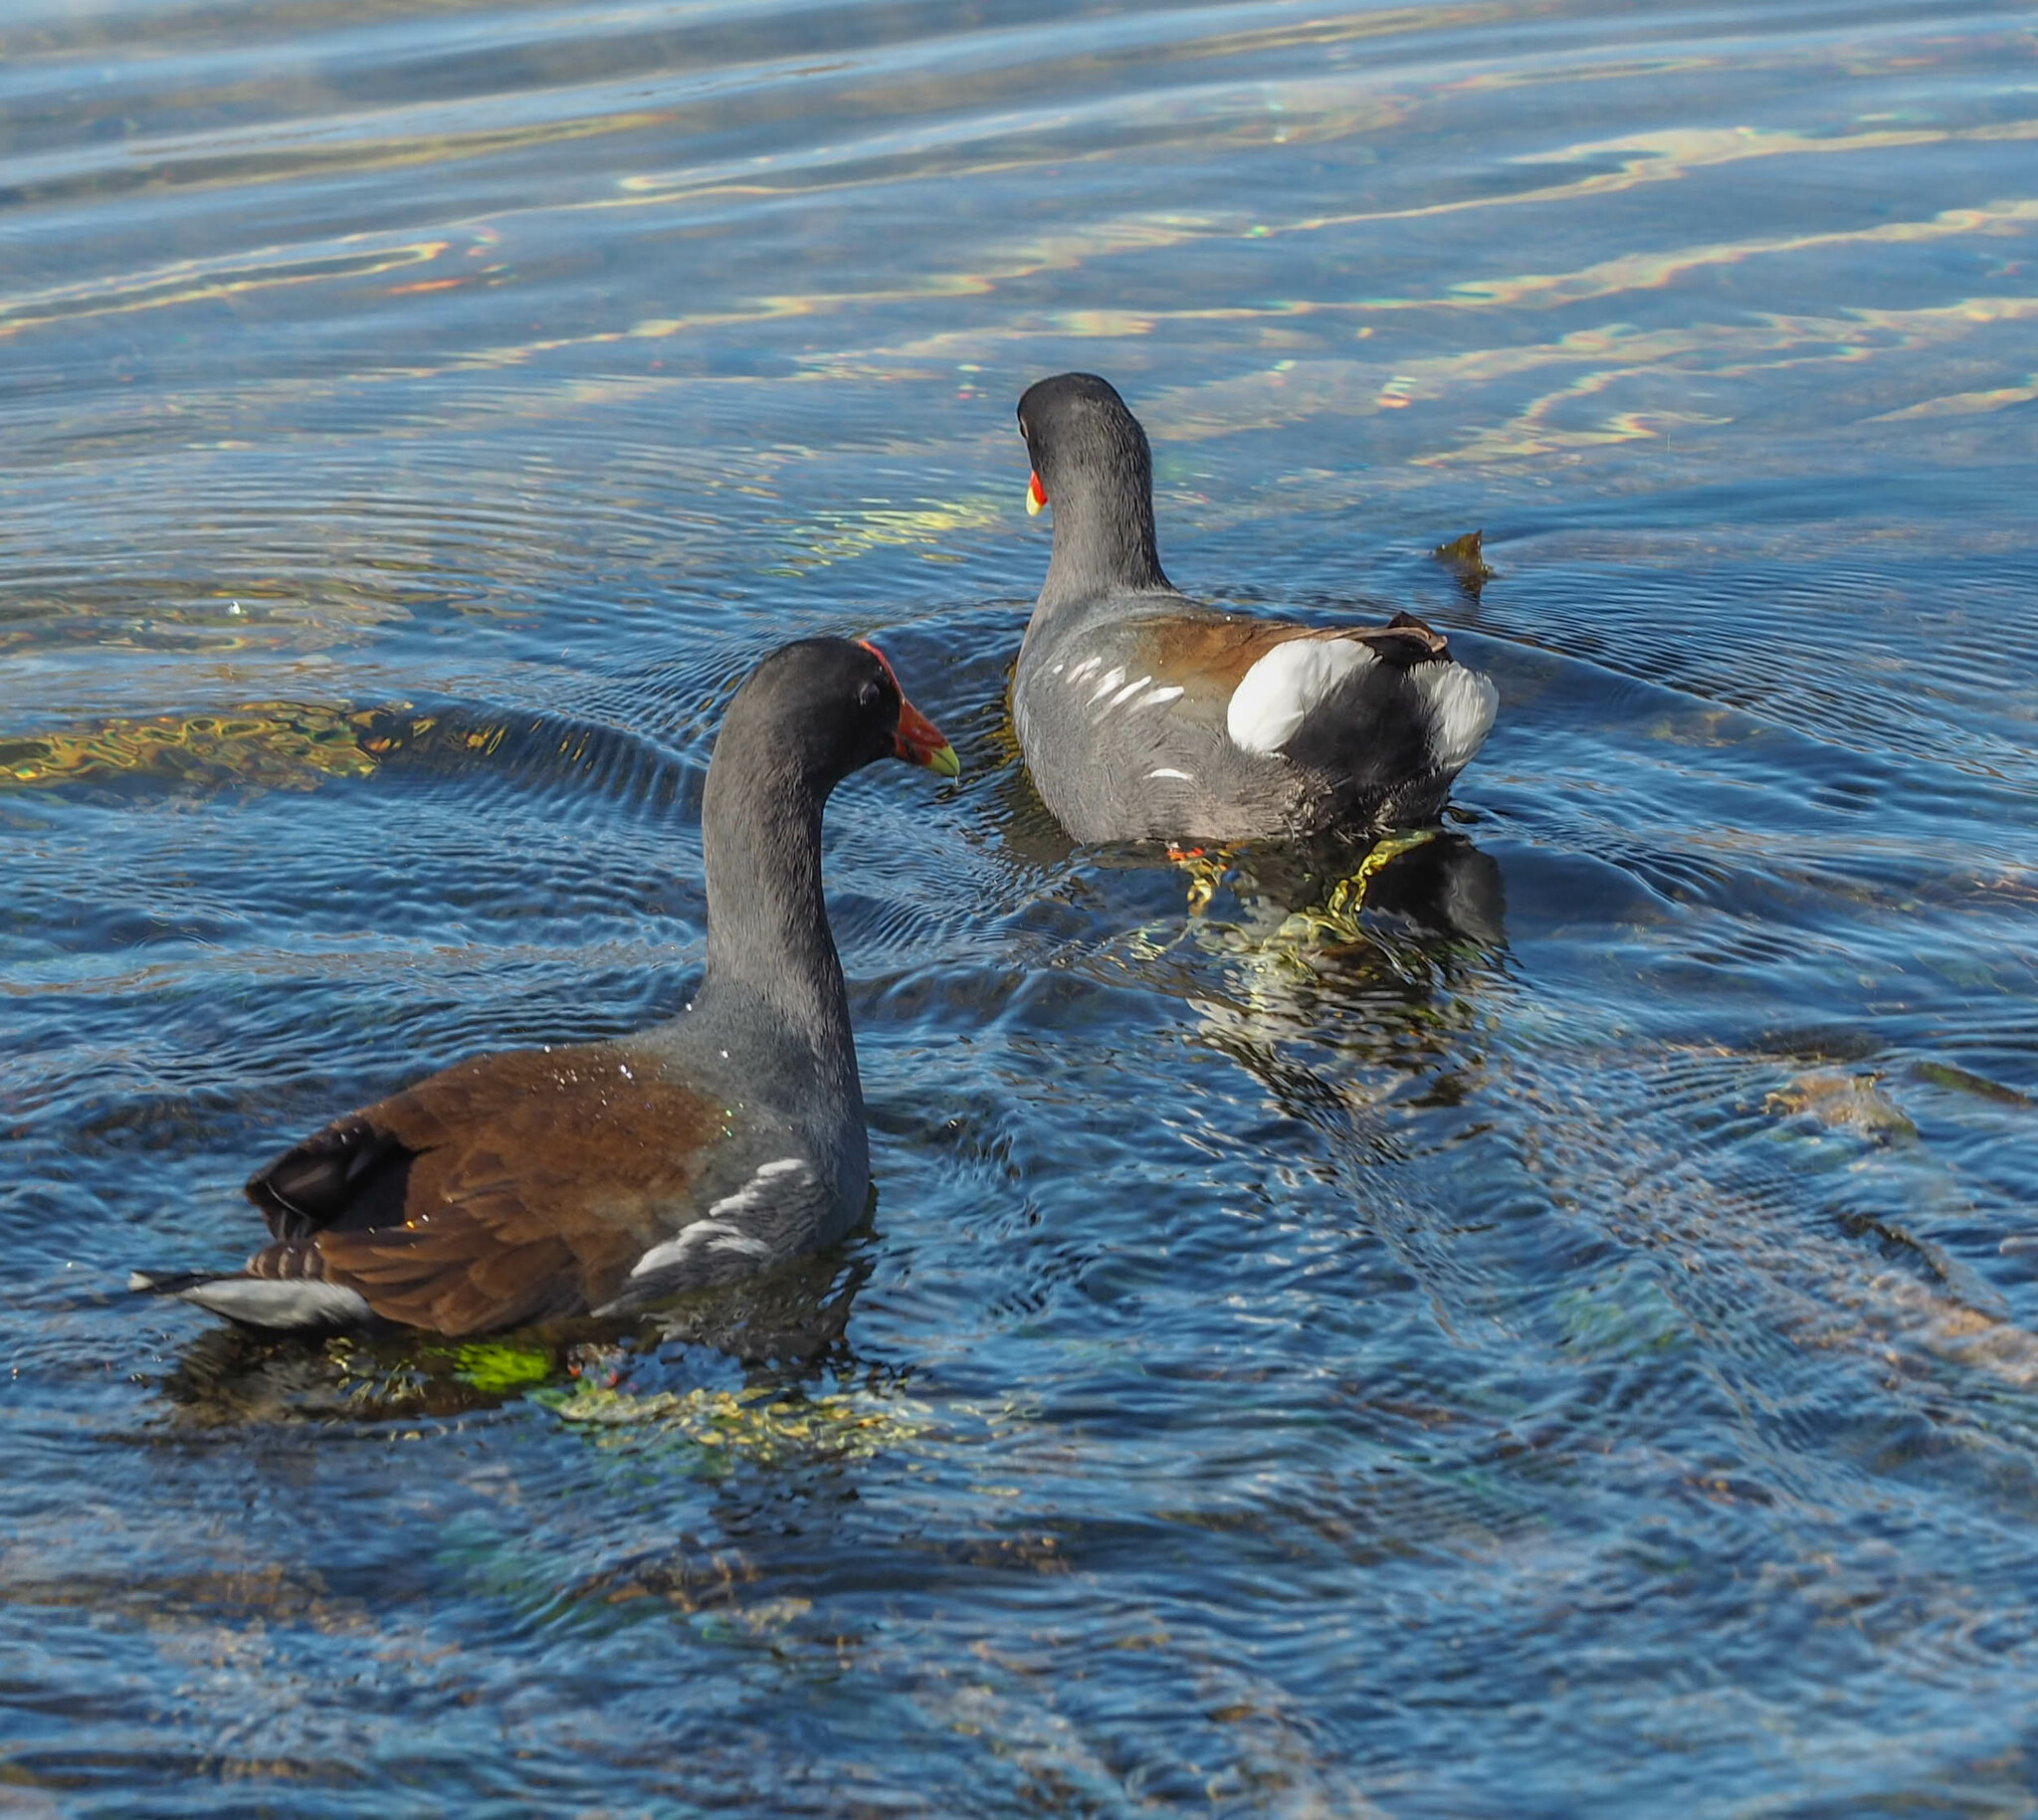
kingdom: Animalia
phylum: Chordata
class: Aves
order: Gruiformes
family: Rallidae
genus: Gallinula
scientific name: Gallinula chloropus
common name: Common moorhen
